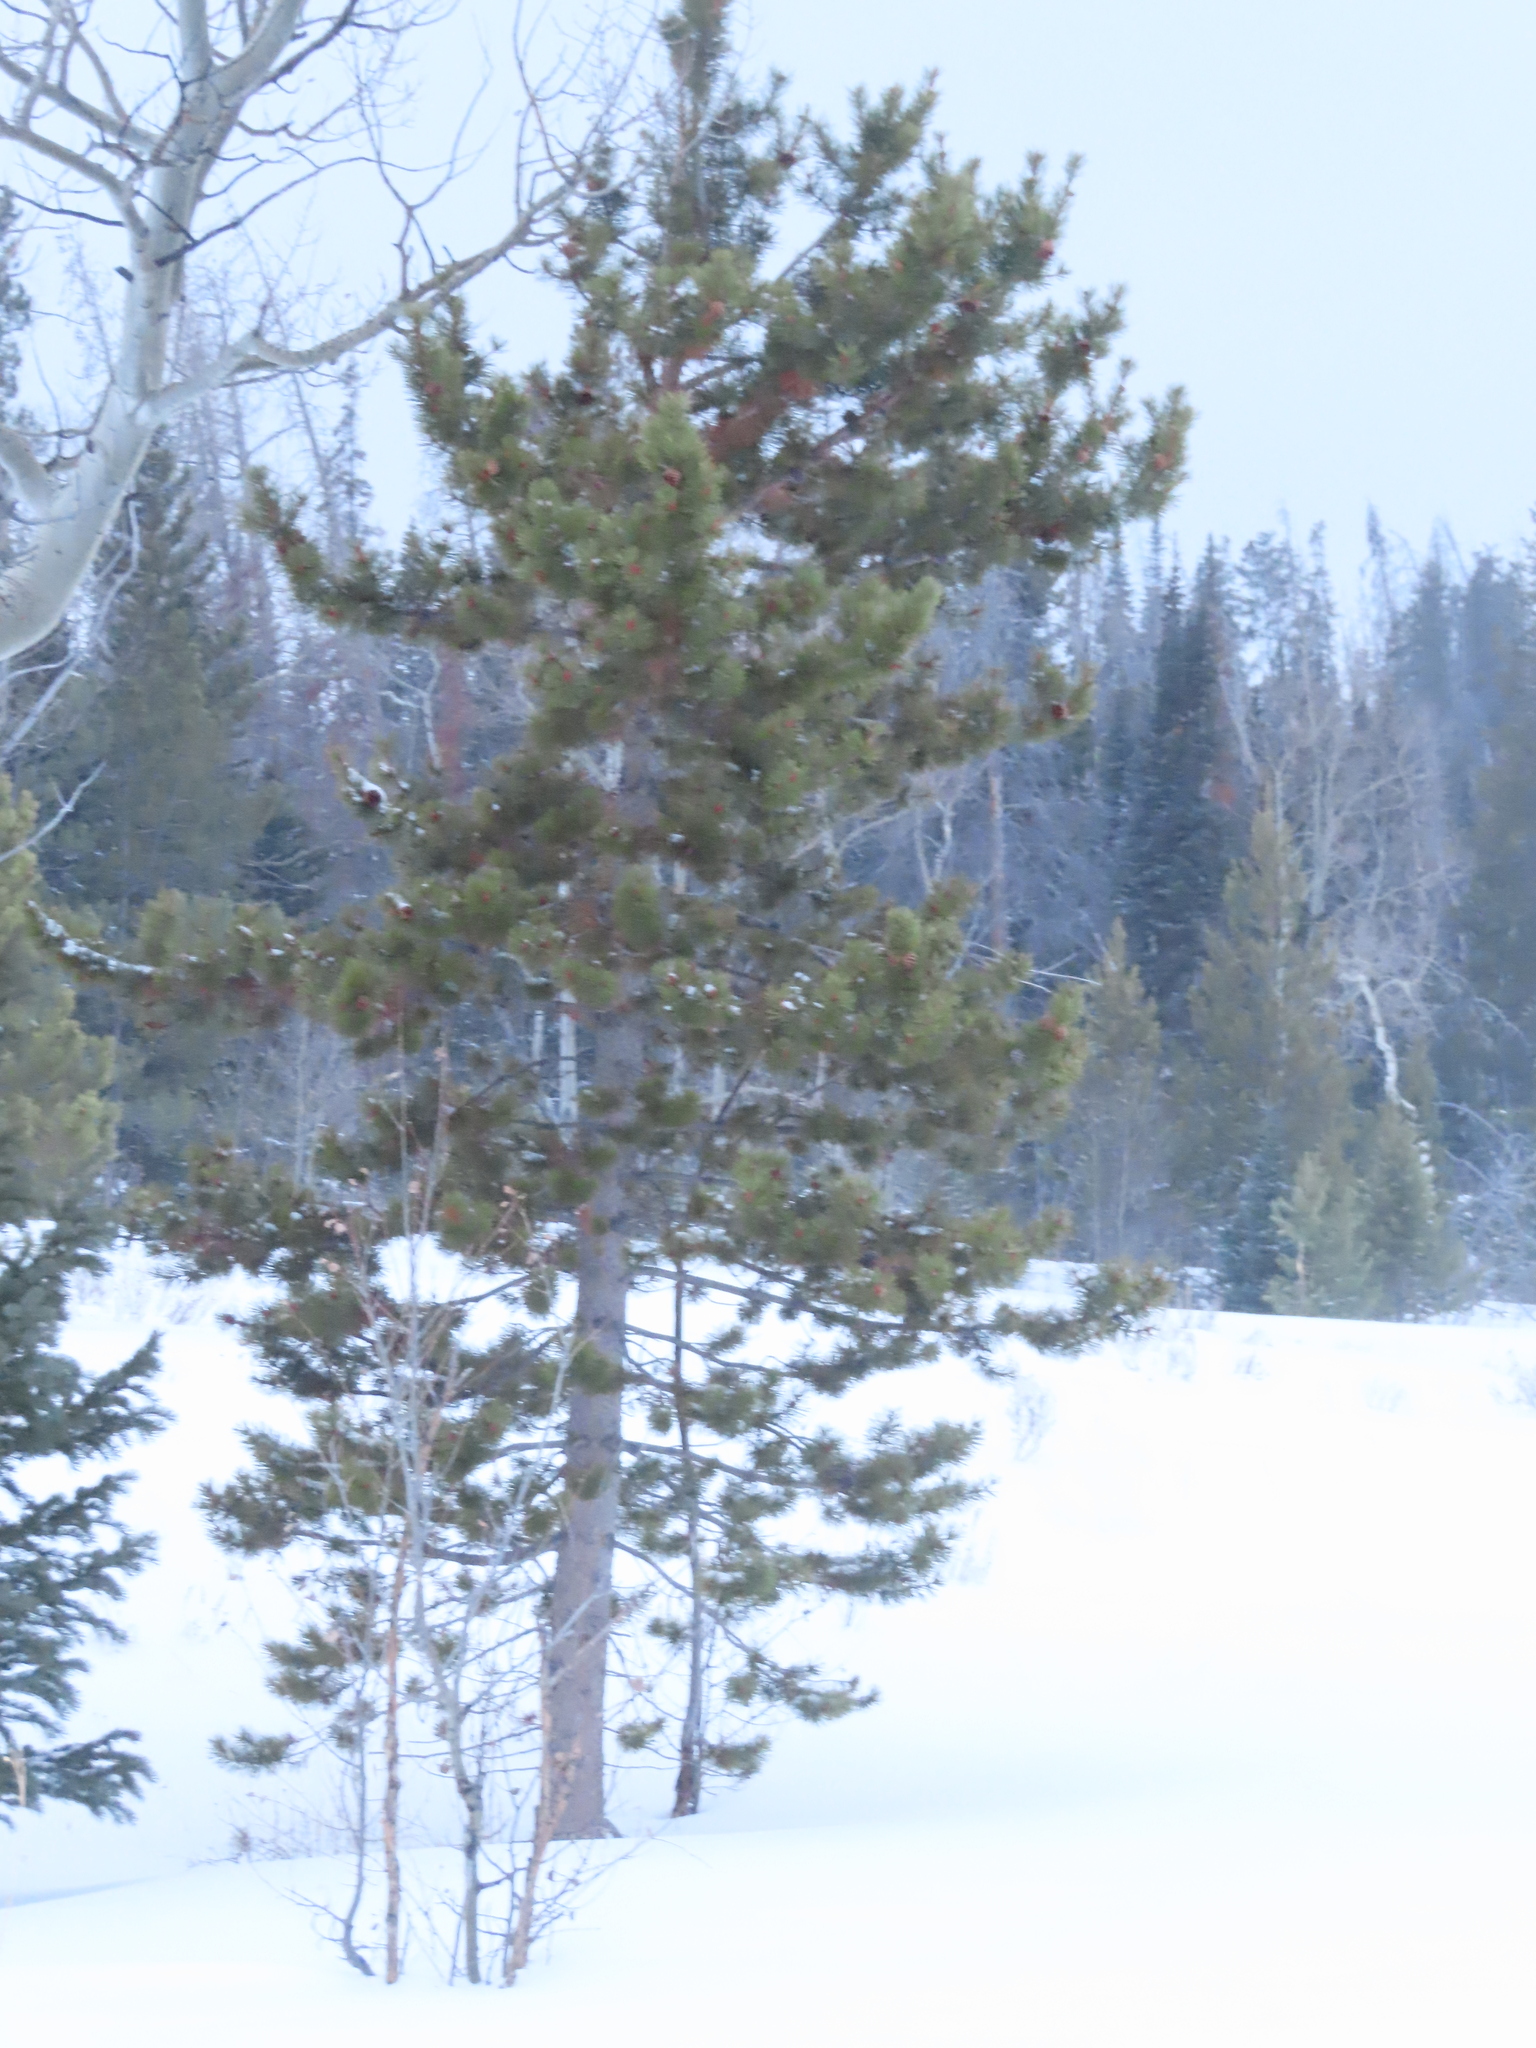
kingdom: Plantae
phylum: Tracheophyta
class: Pinopsida
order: Pinales
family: Pinaceae
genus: Pinus
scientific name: Pinus contorta
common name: Lodgepole pine
